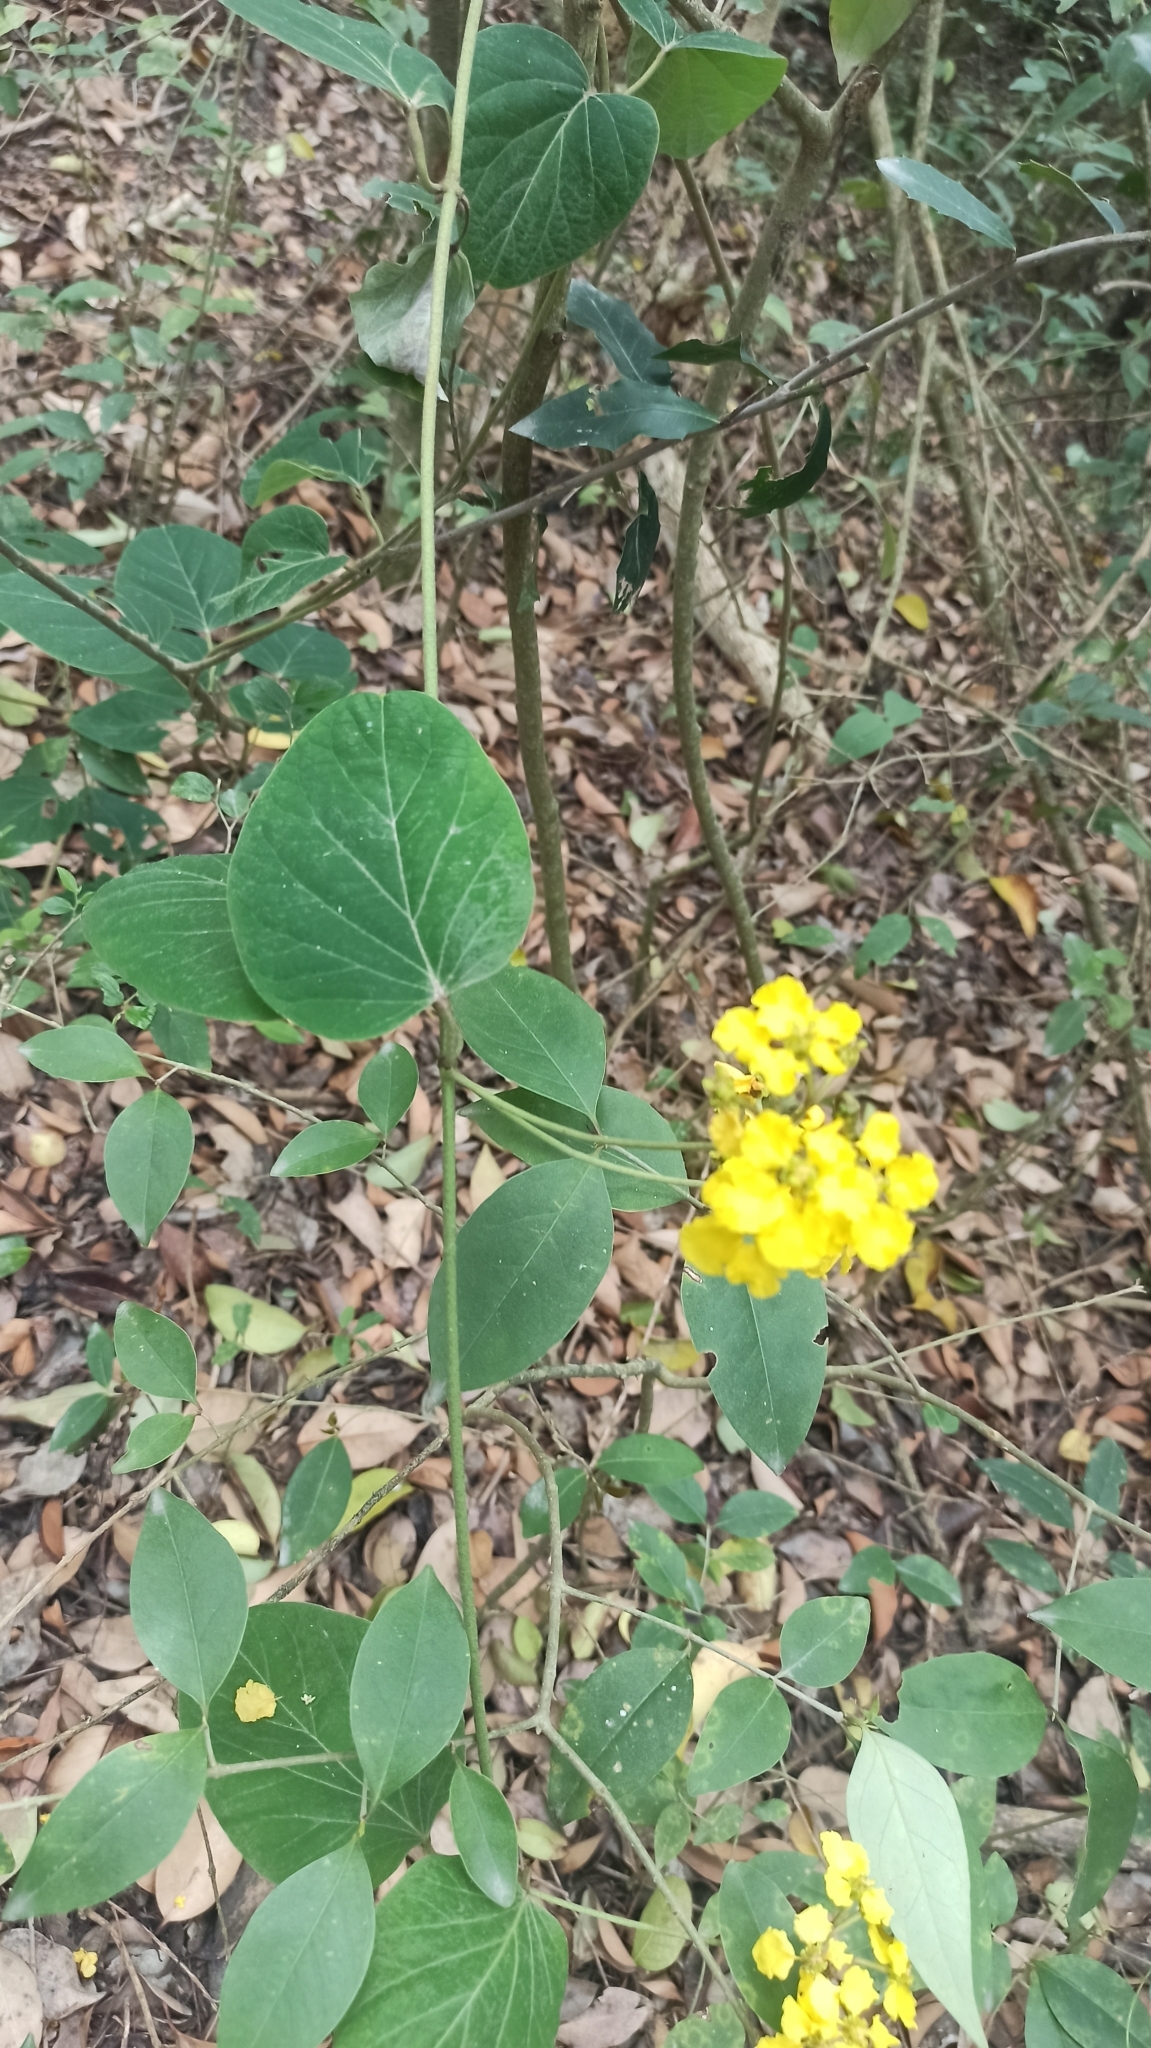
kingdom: Plantae
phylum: Tracheophyta
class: Magnoliopsida
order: Malpighiales
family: Malpighiaceae
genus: Stigmaphyllon
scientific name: Stigmaphyllon bonariense
